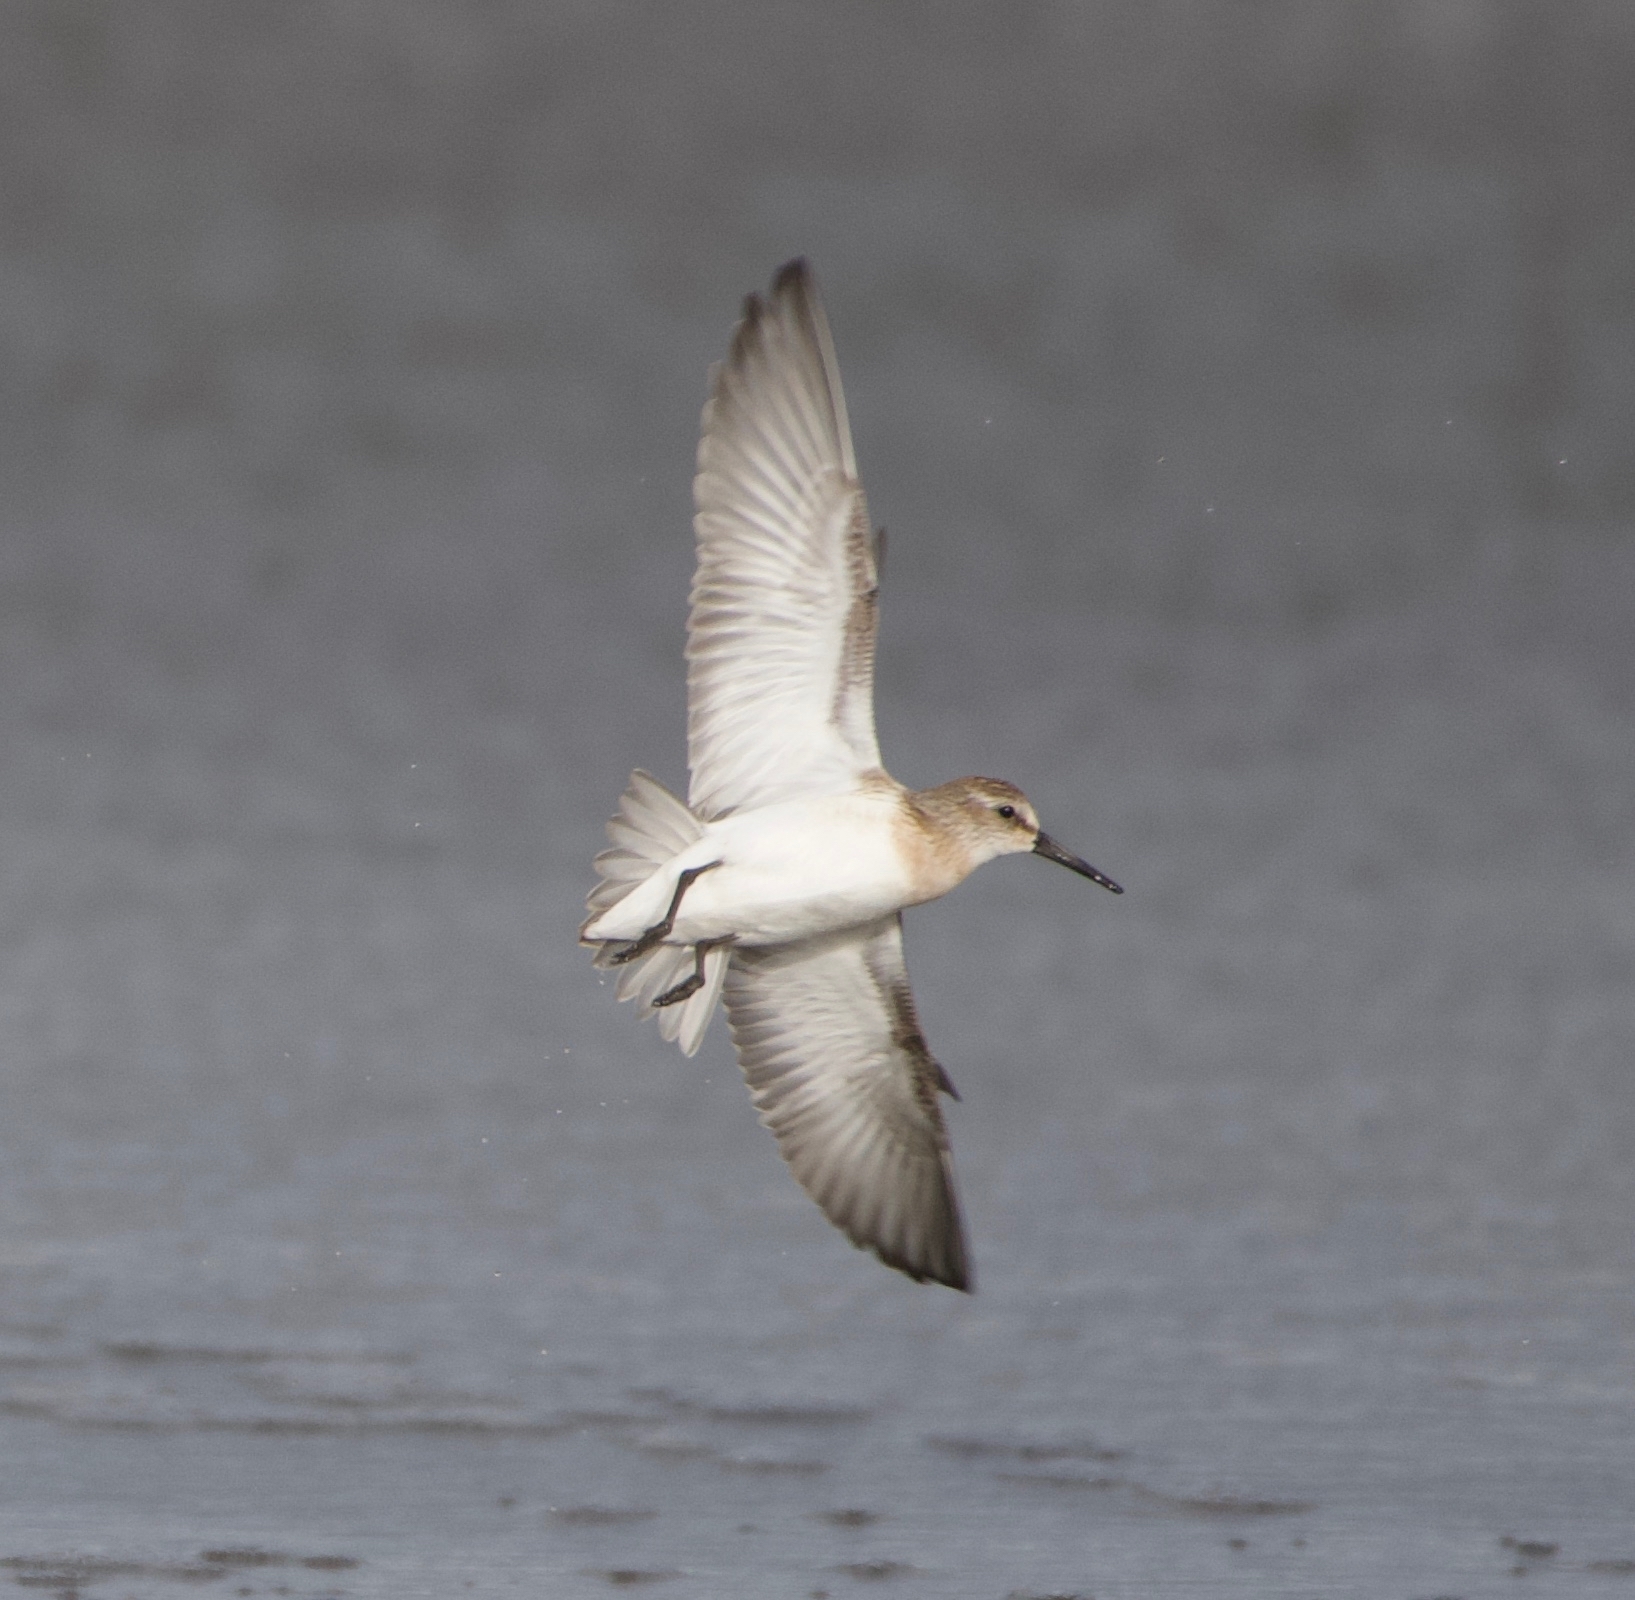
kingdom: Animalia
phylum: Chordata
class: Aves
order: Charadriiformes
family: Scolopacidae
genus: Calidris
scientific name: Calidris mauri
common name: Western sandpiper
